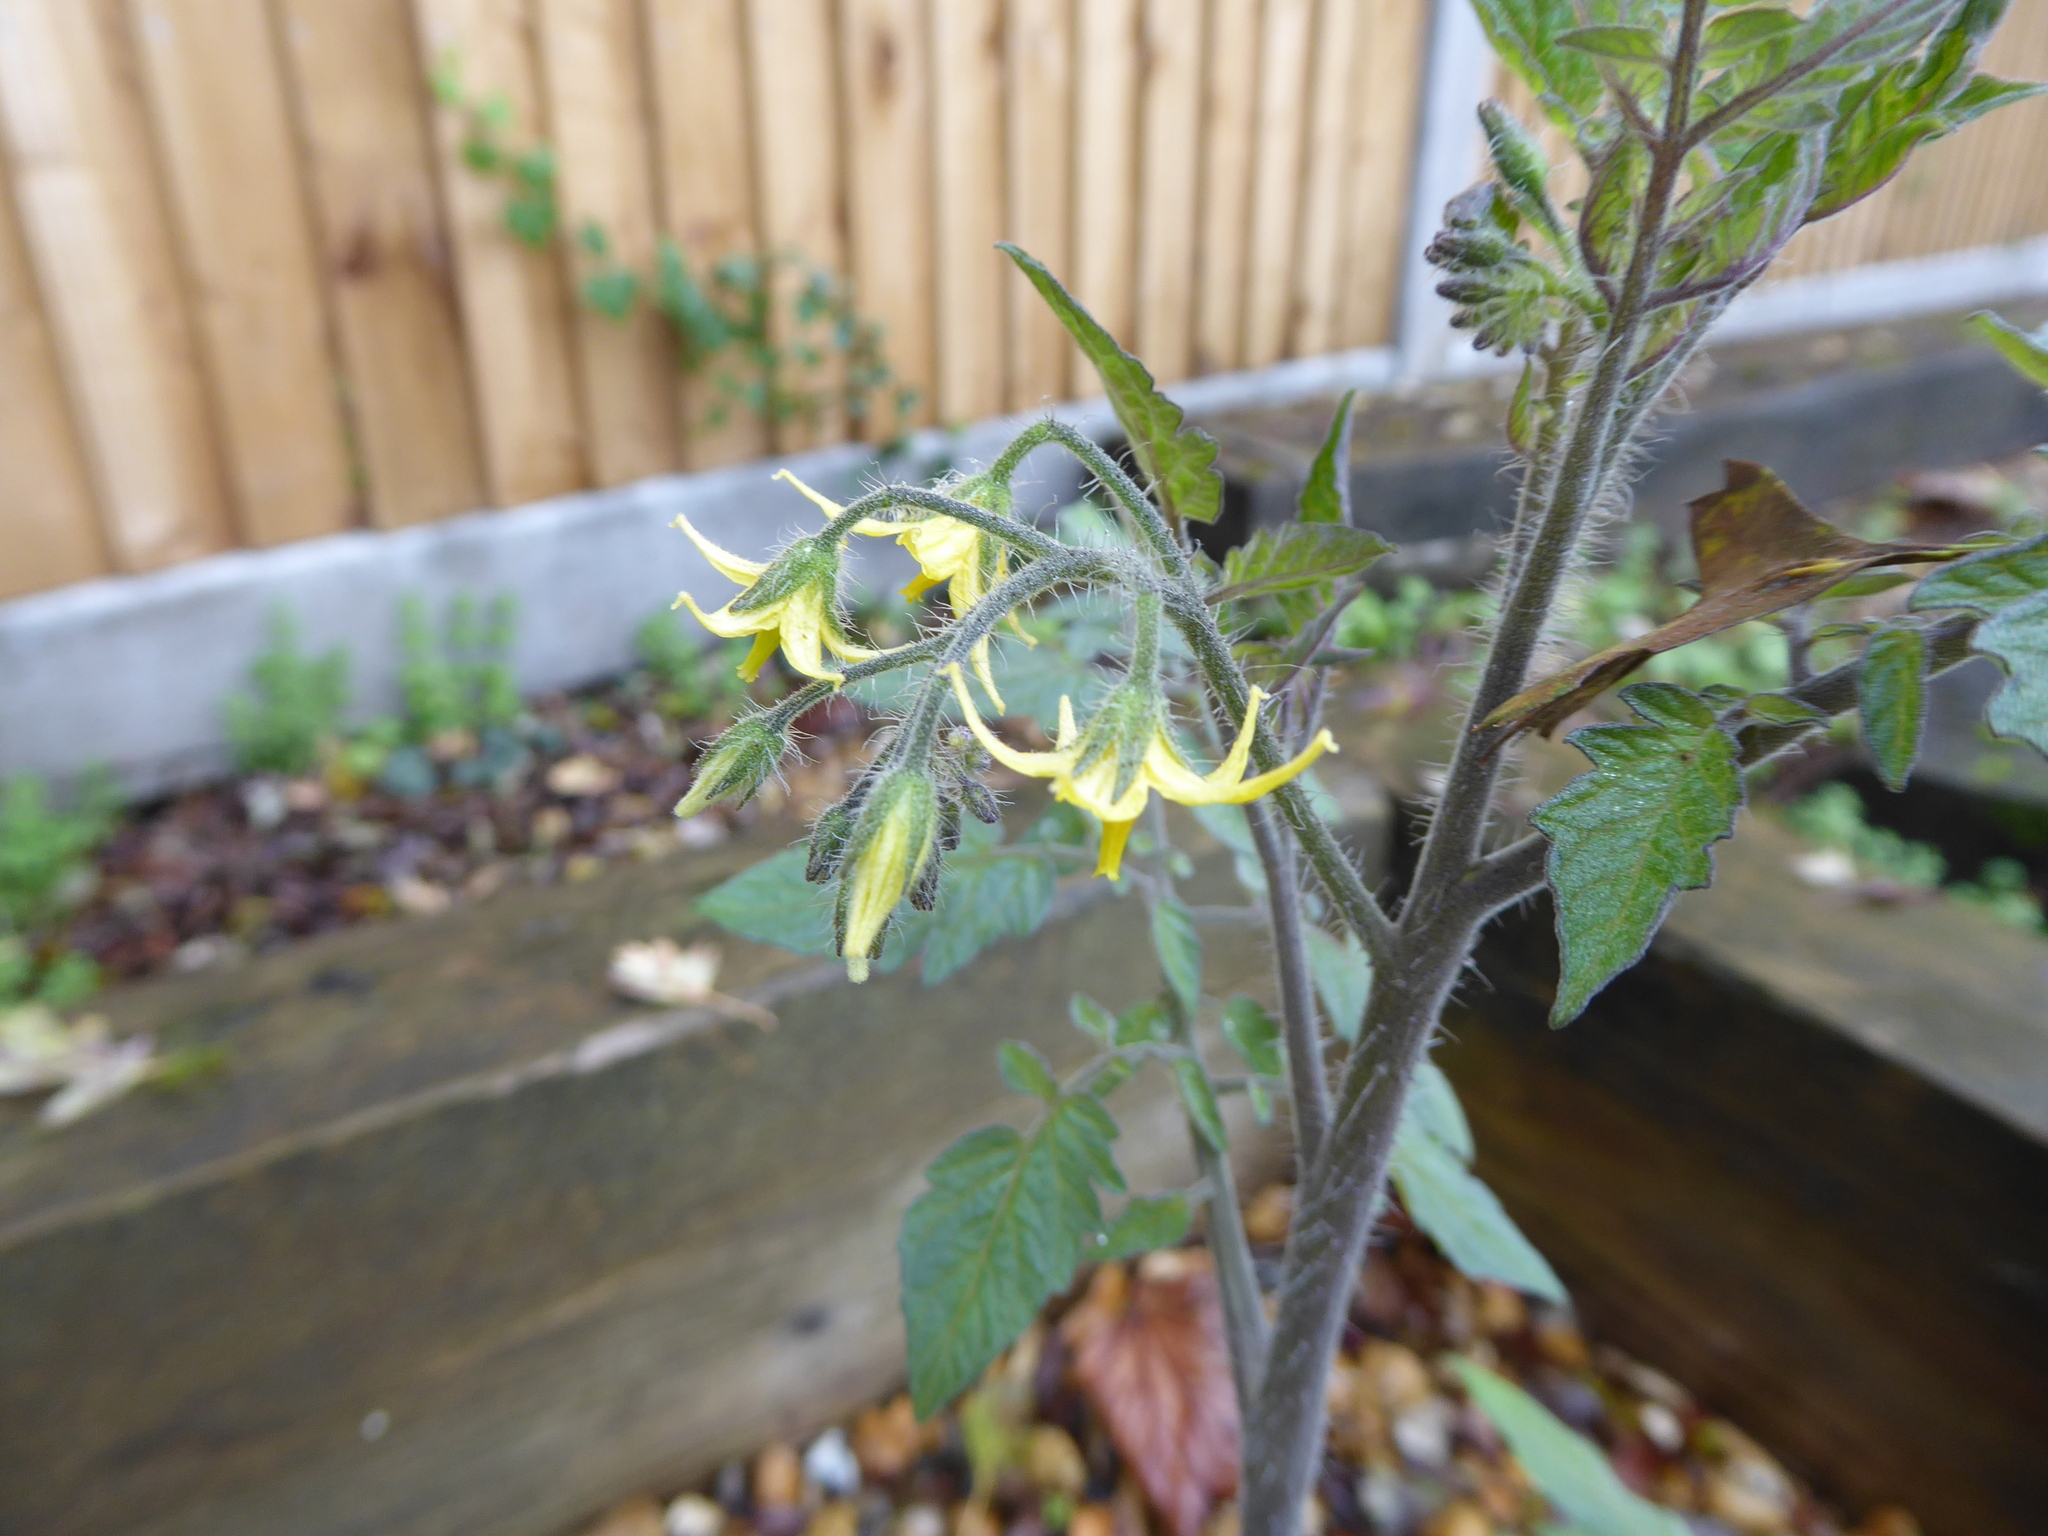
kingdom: Plantae
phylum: Tracheophyta
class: Magnoliopsida
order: Solanales
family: Solanaceae
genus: Solanum
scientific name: Solanum lycopersicum
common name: Garden tomato
